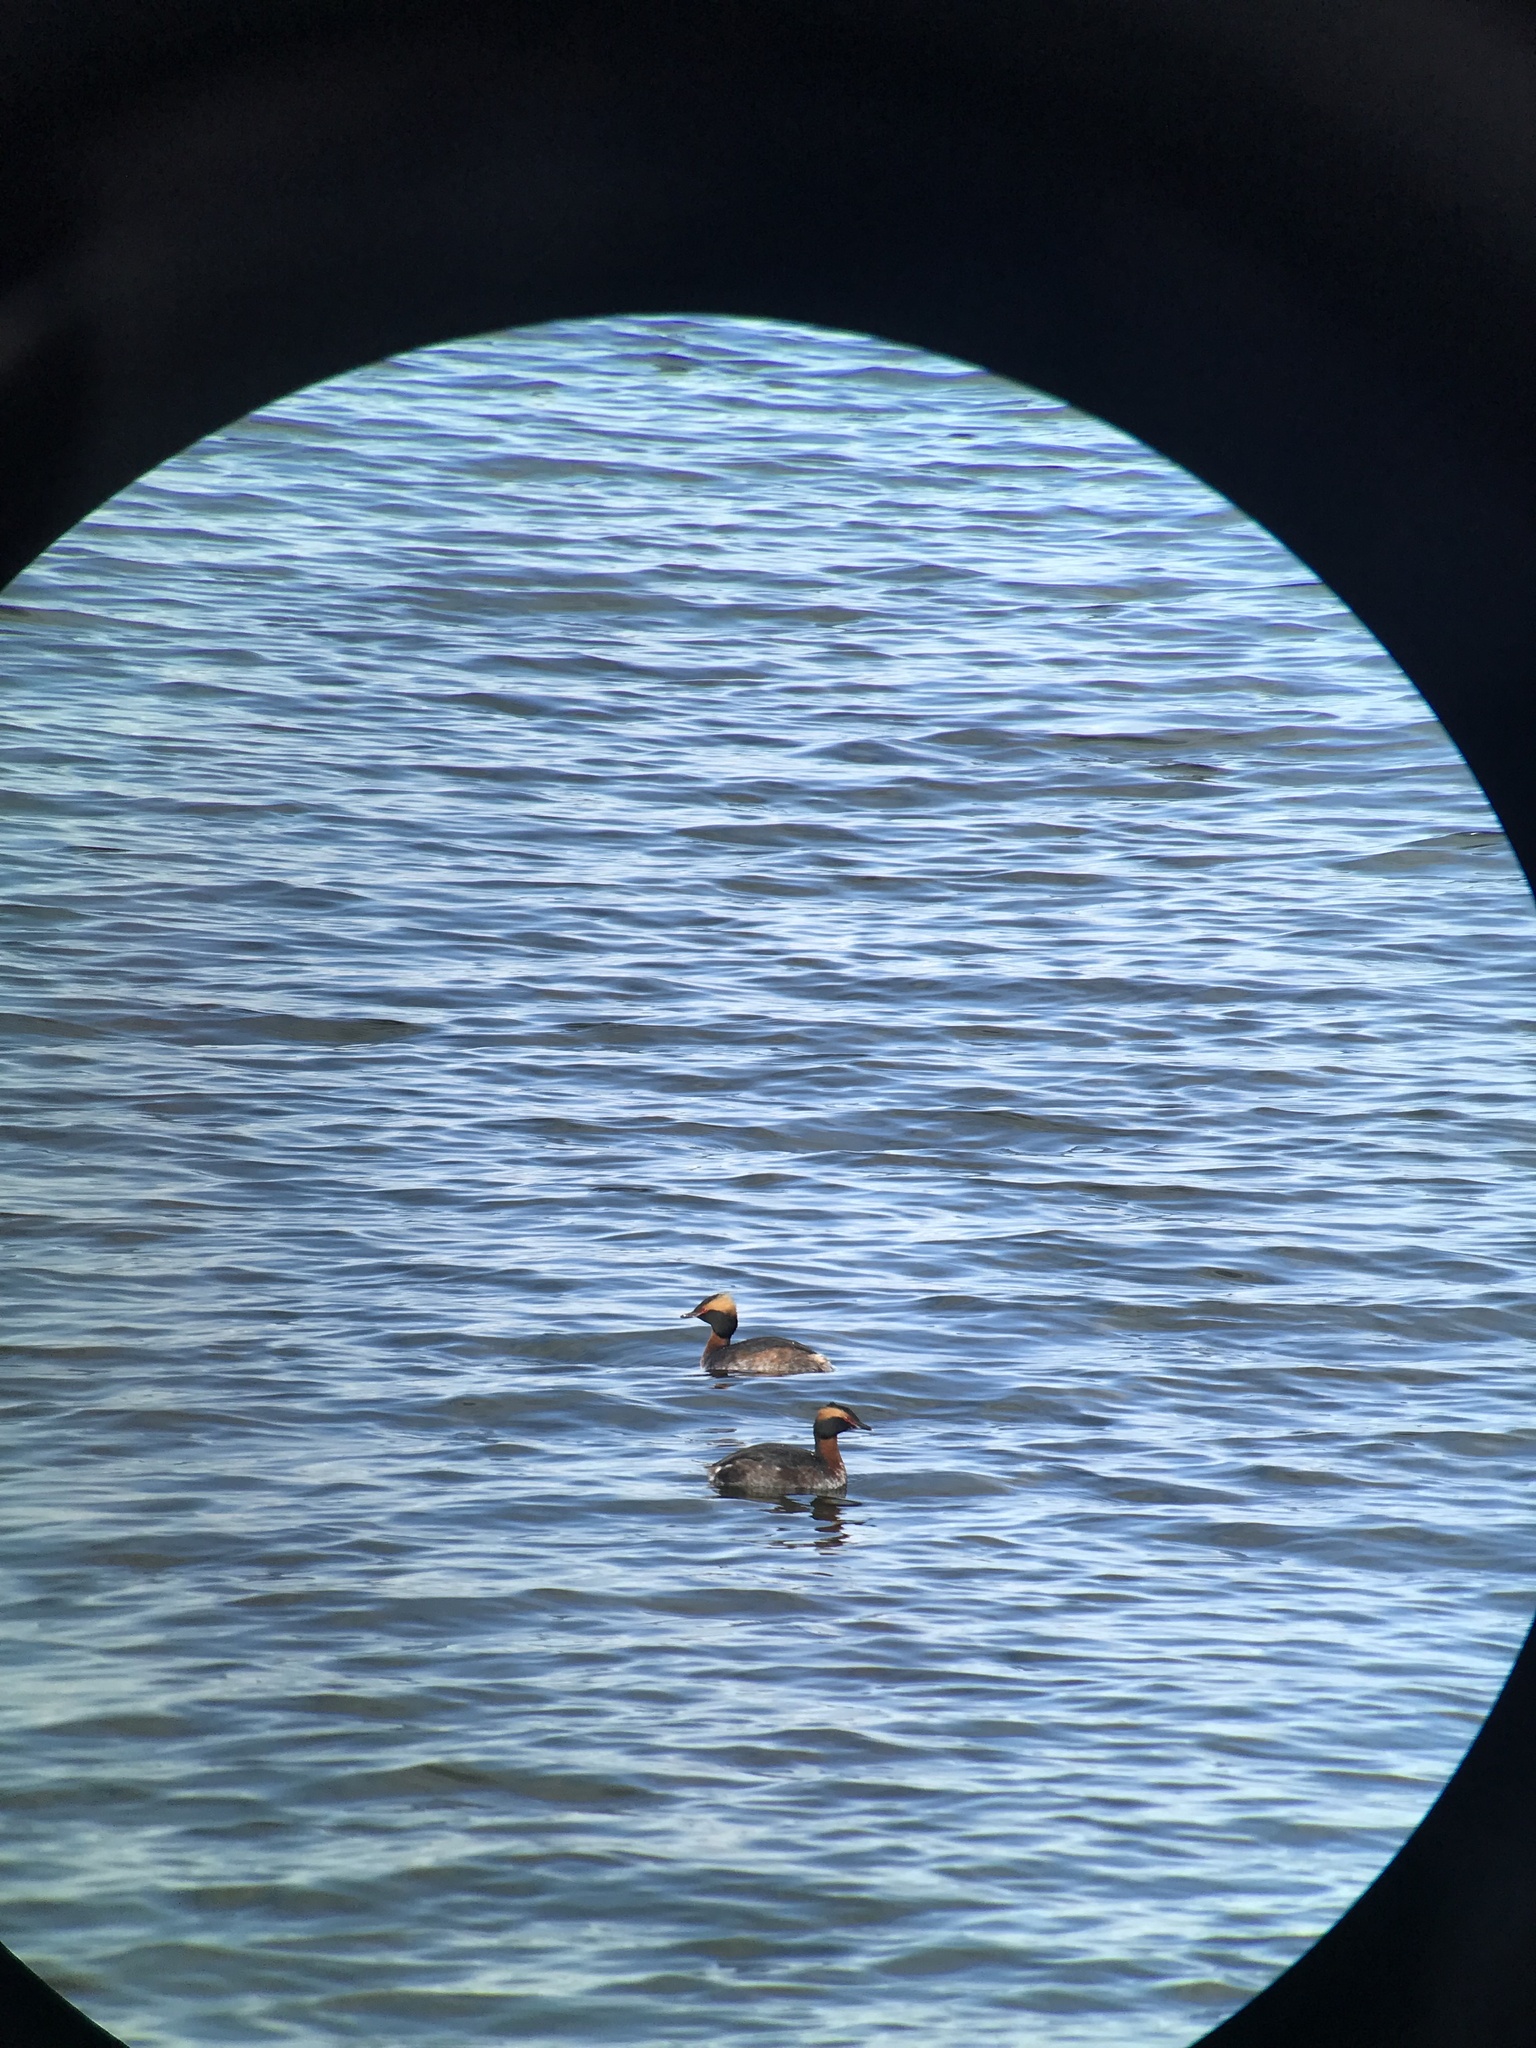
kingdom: Animalia
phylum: Chordata
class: Aves
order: Podicipediformes
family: Podicipedidae
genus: Podiceps
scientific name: Podiceps auritus
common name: Horned grebe
